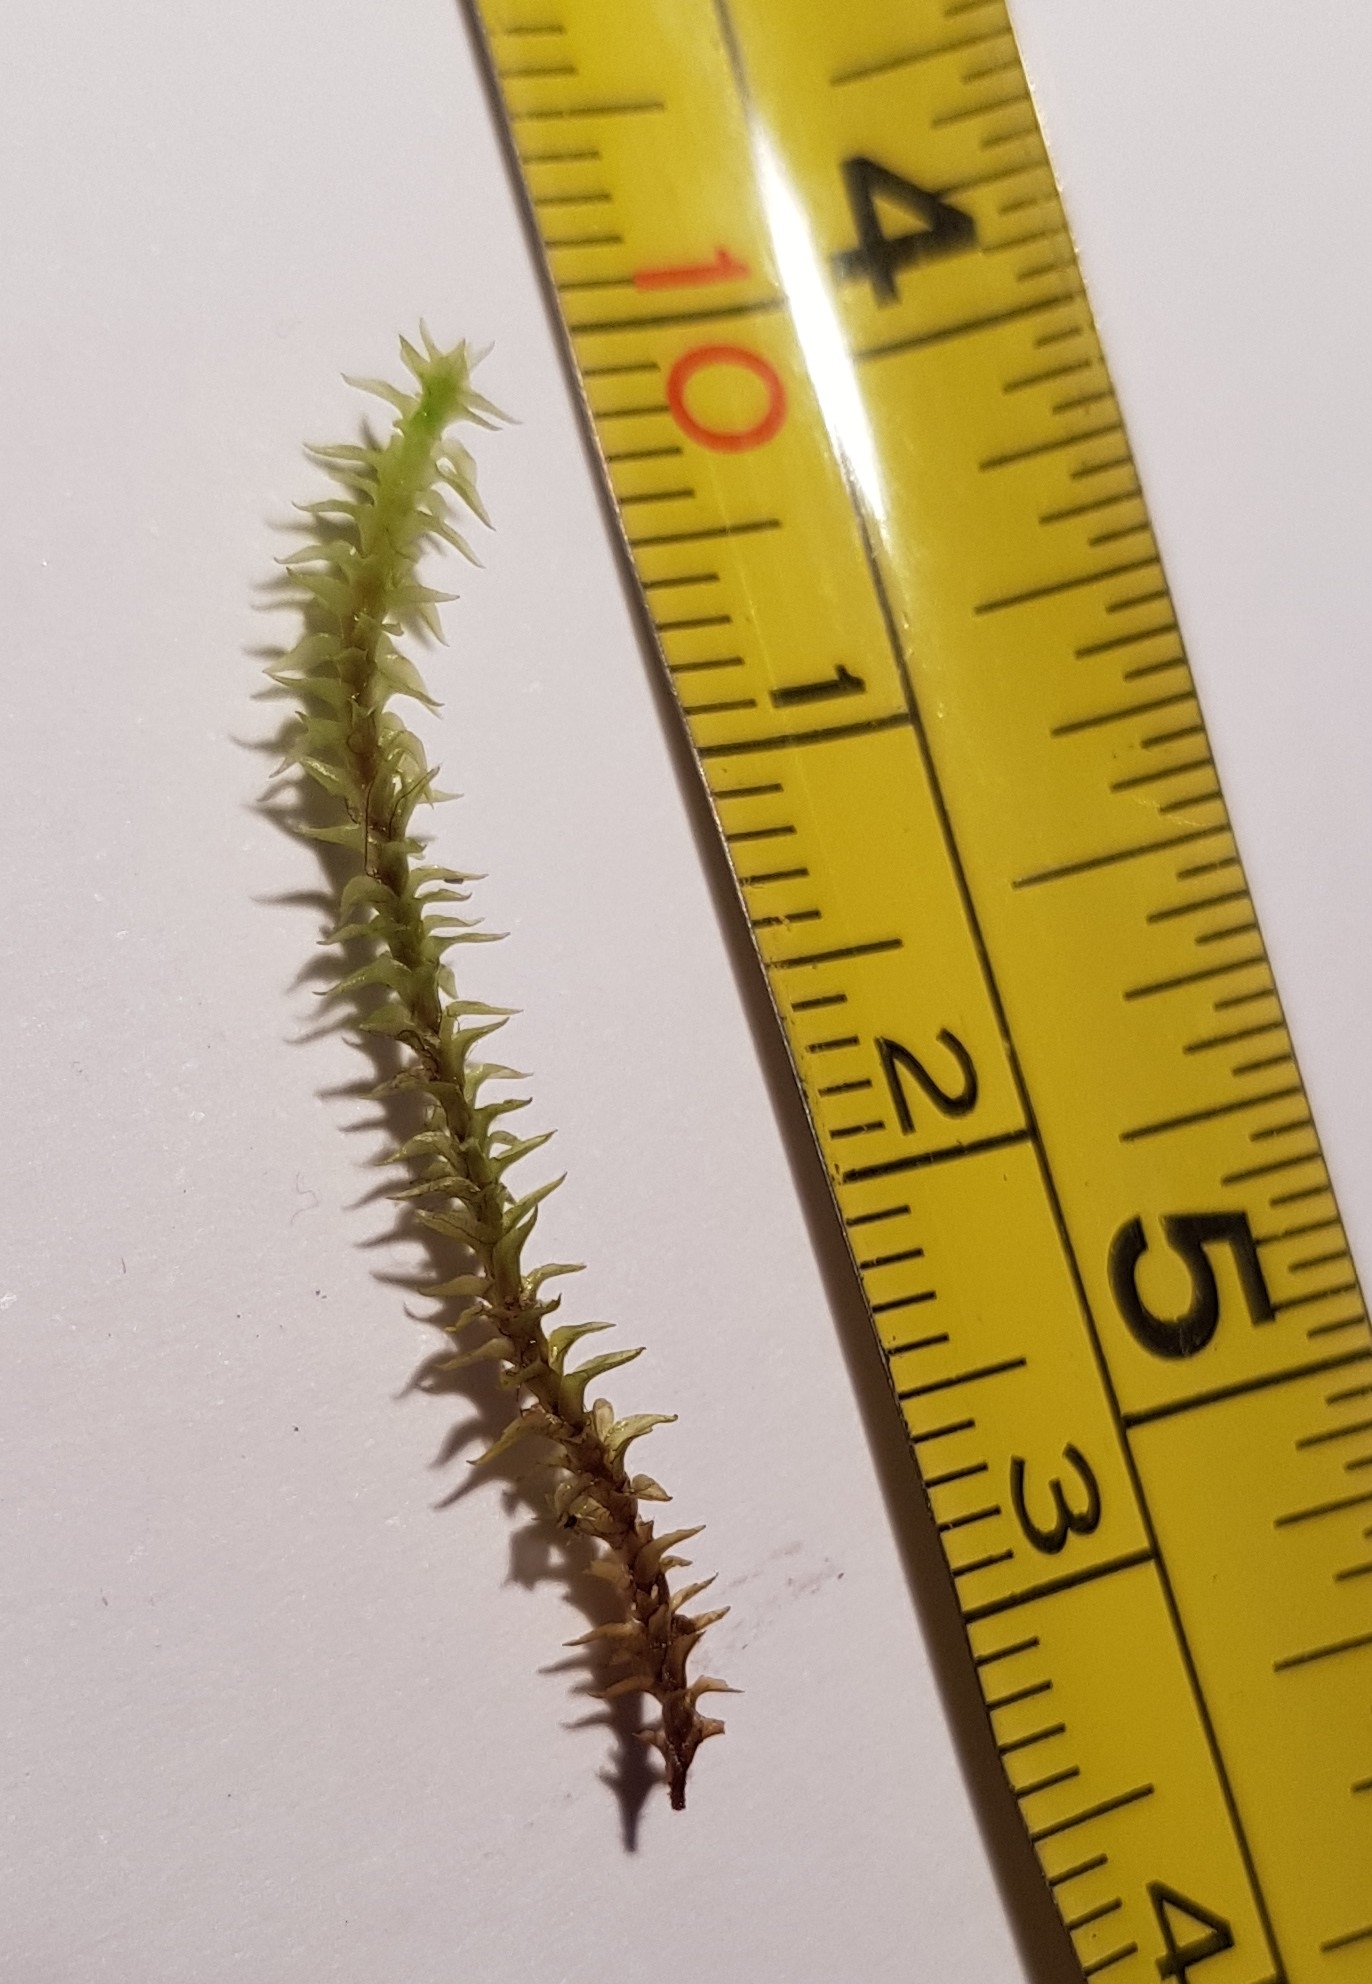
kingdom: Plantae
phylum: Bryophyta
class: Bryopsida
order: Dicranales
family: Aongstroemiaceae
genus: Diobelonella
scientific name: Diobelonella palustris
